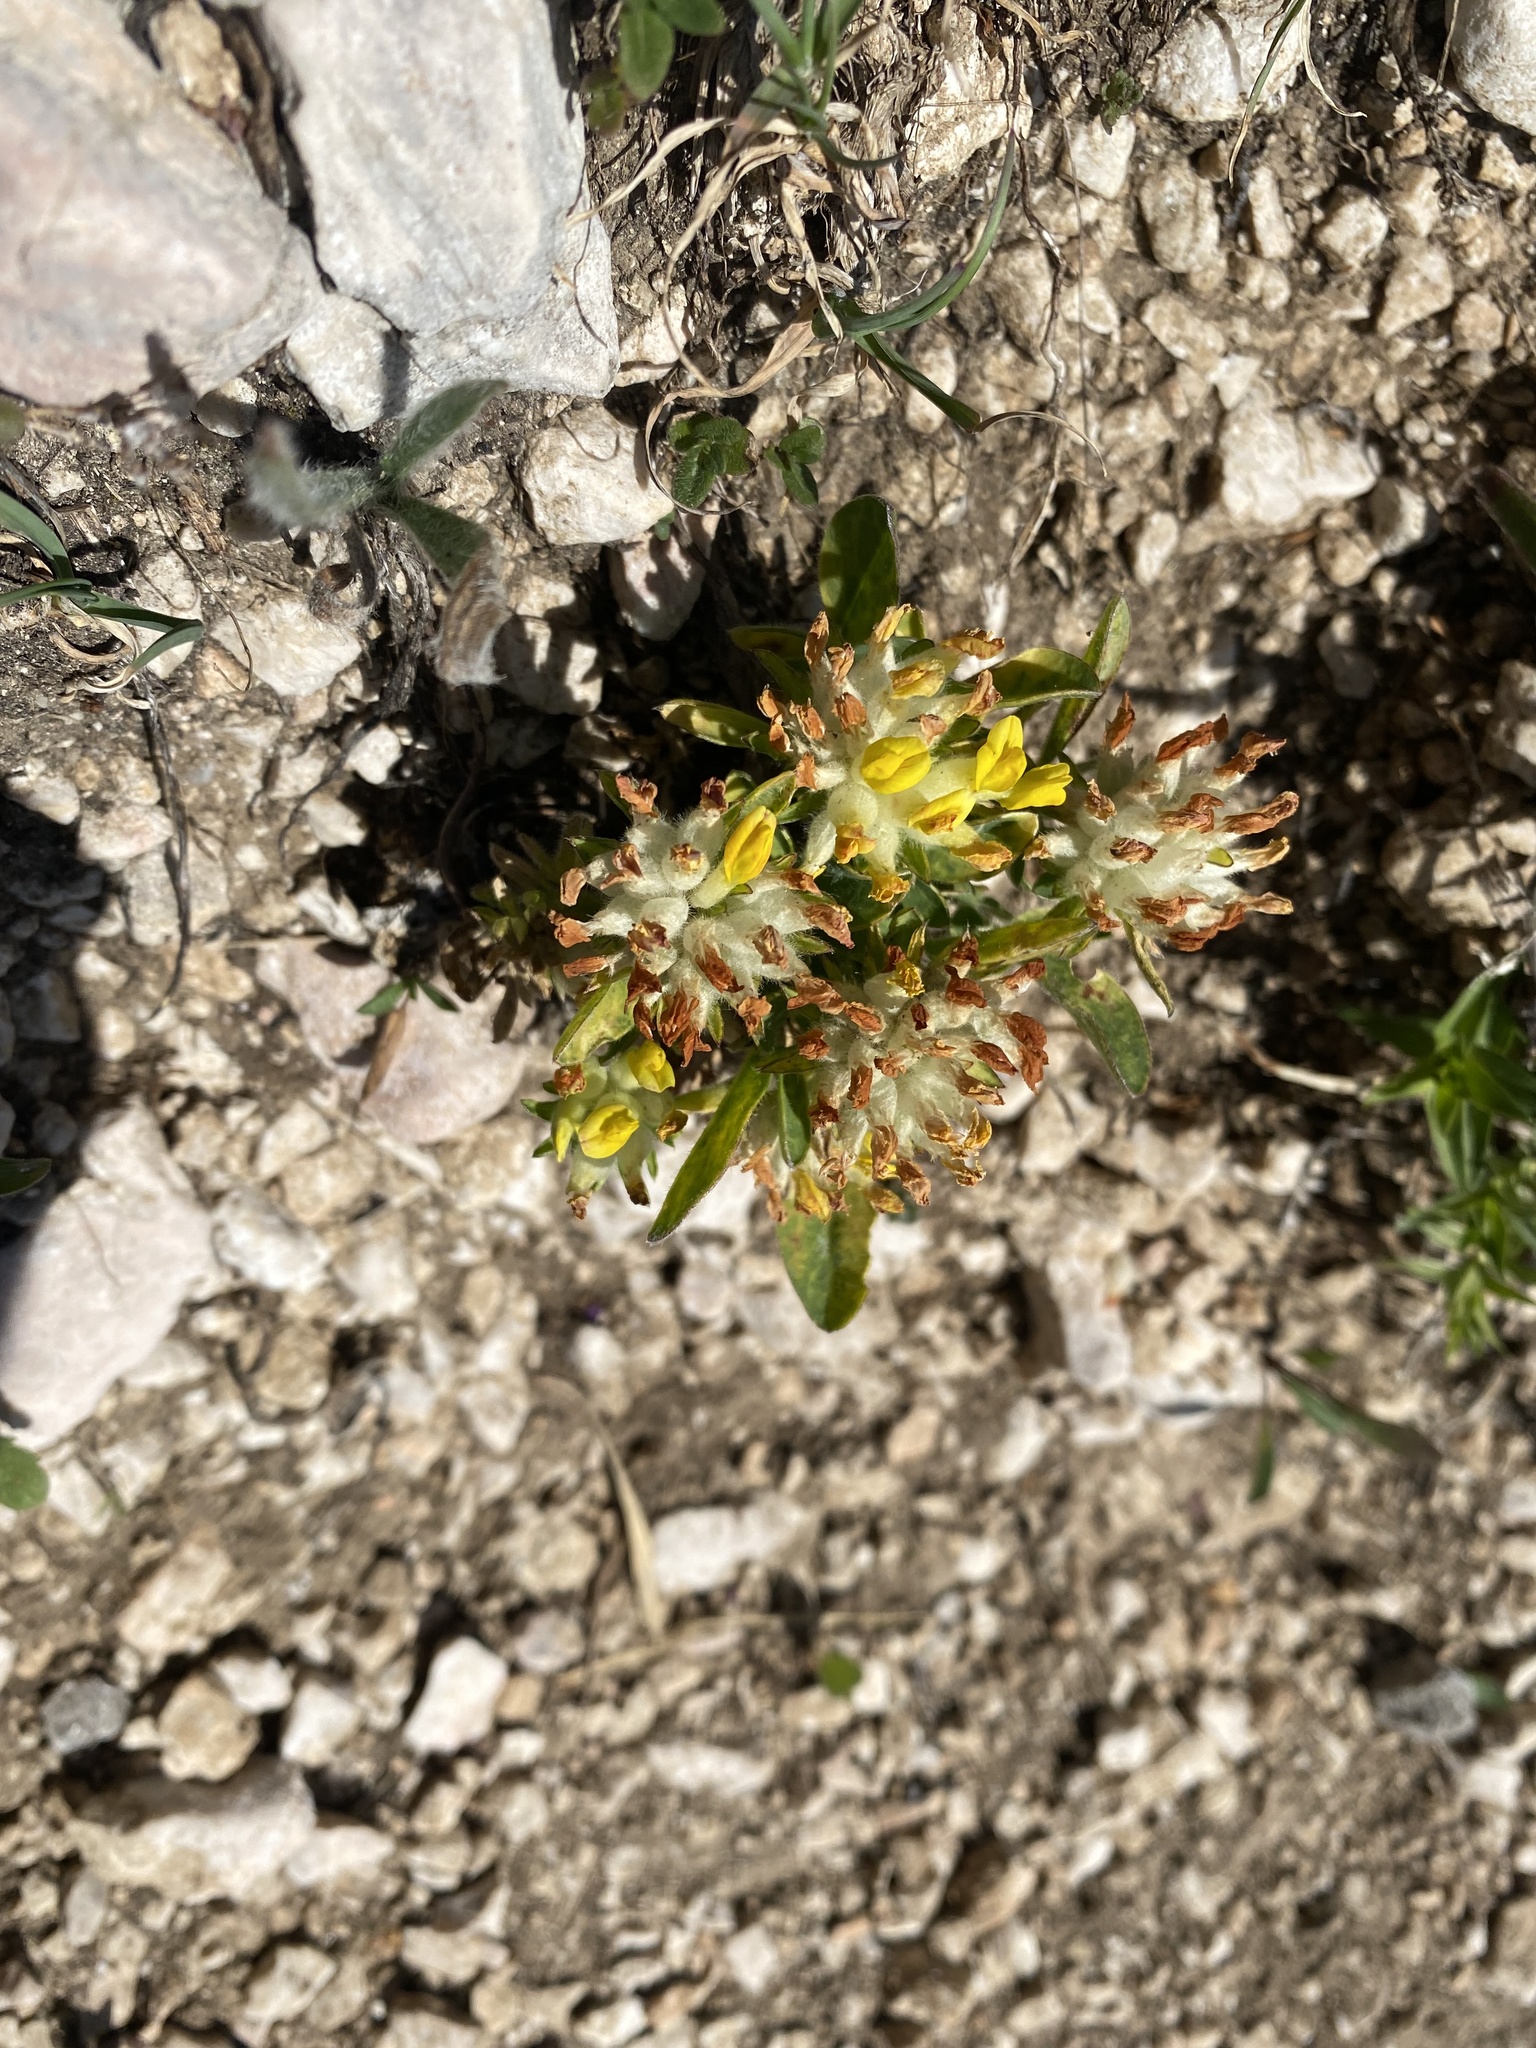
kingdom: Plantae
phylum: Tracheophyta
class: Magnoliopsida
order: Fabales
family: Fabaceae
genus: Anthyllis
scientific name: Anthyllis vulneraria
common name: Kidney vetch
